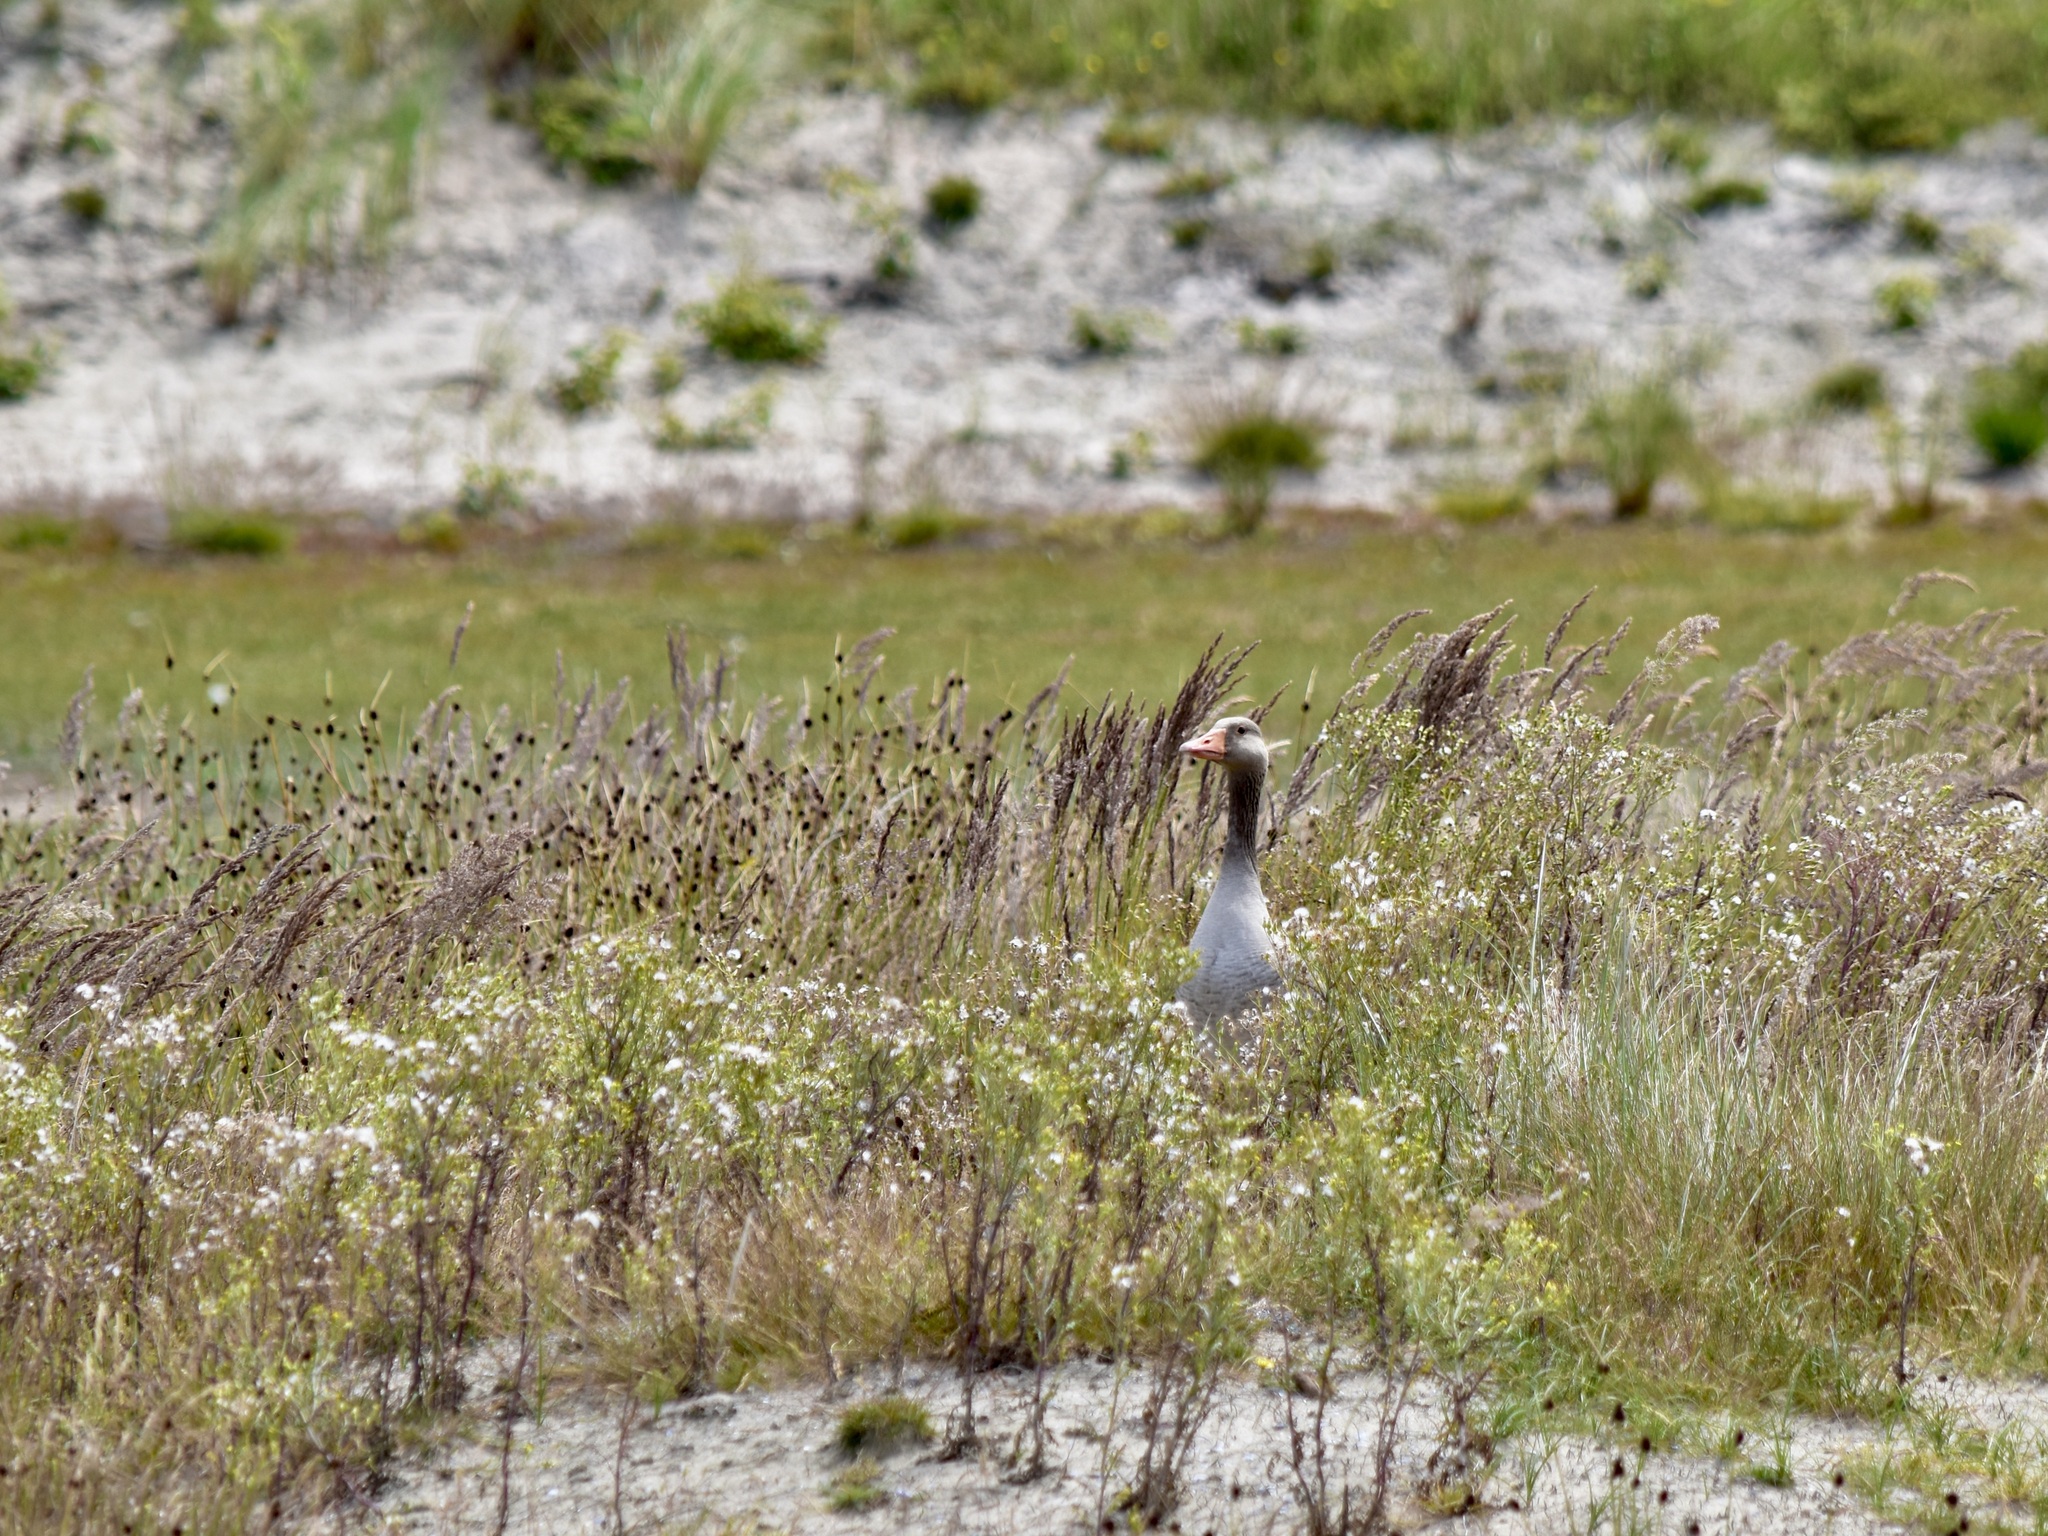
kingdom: Animalia
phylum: Chordata
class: Aves
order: Anseriformes
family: Anatidae
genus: Anser
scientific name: Anser anser
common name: Greylag goose
